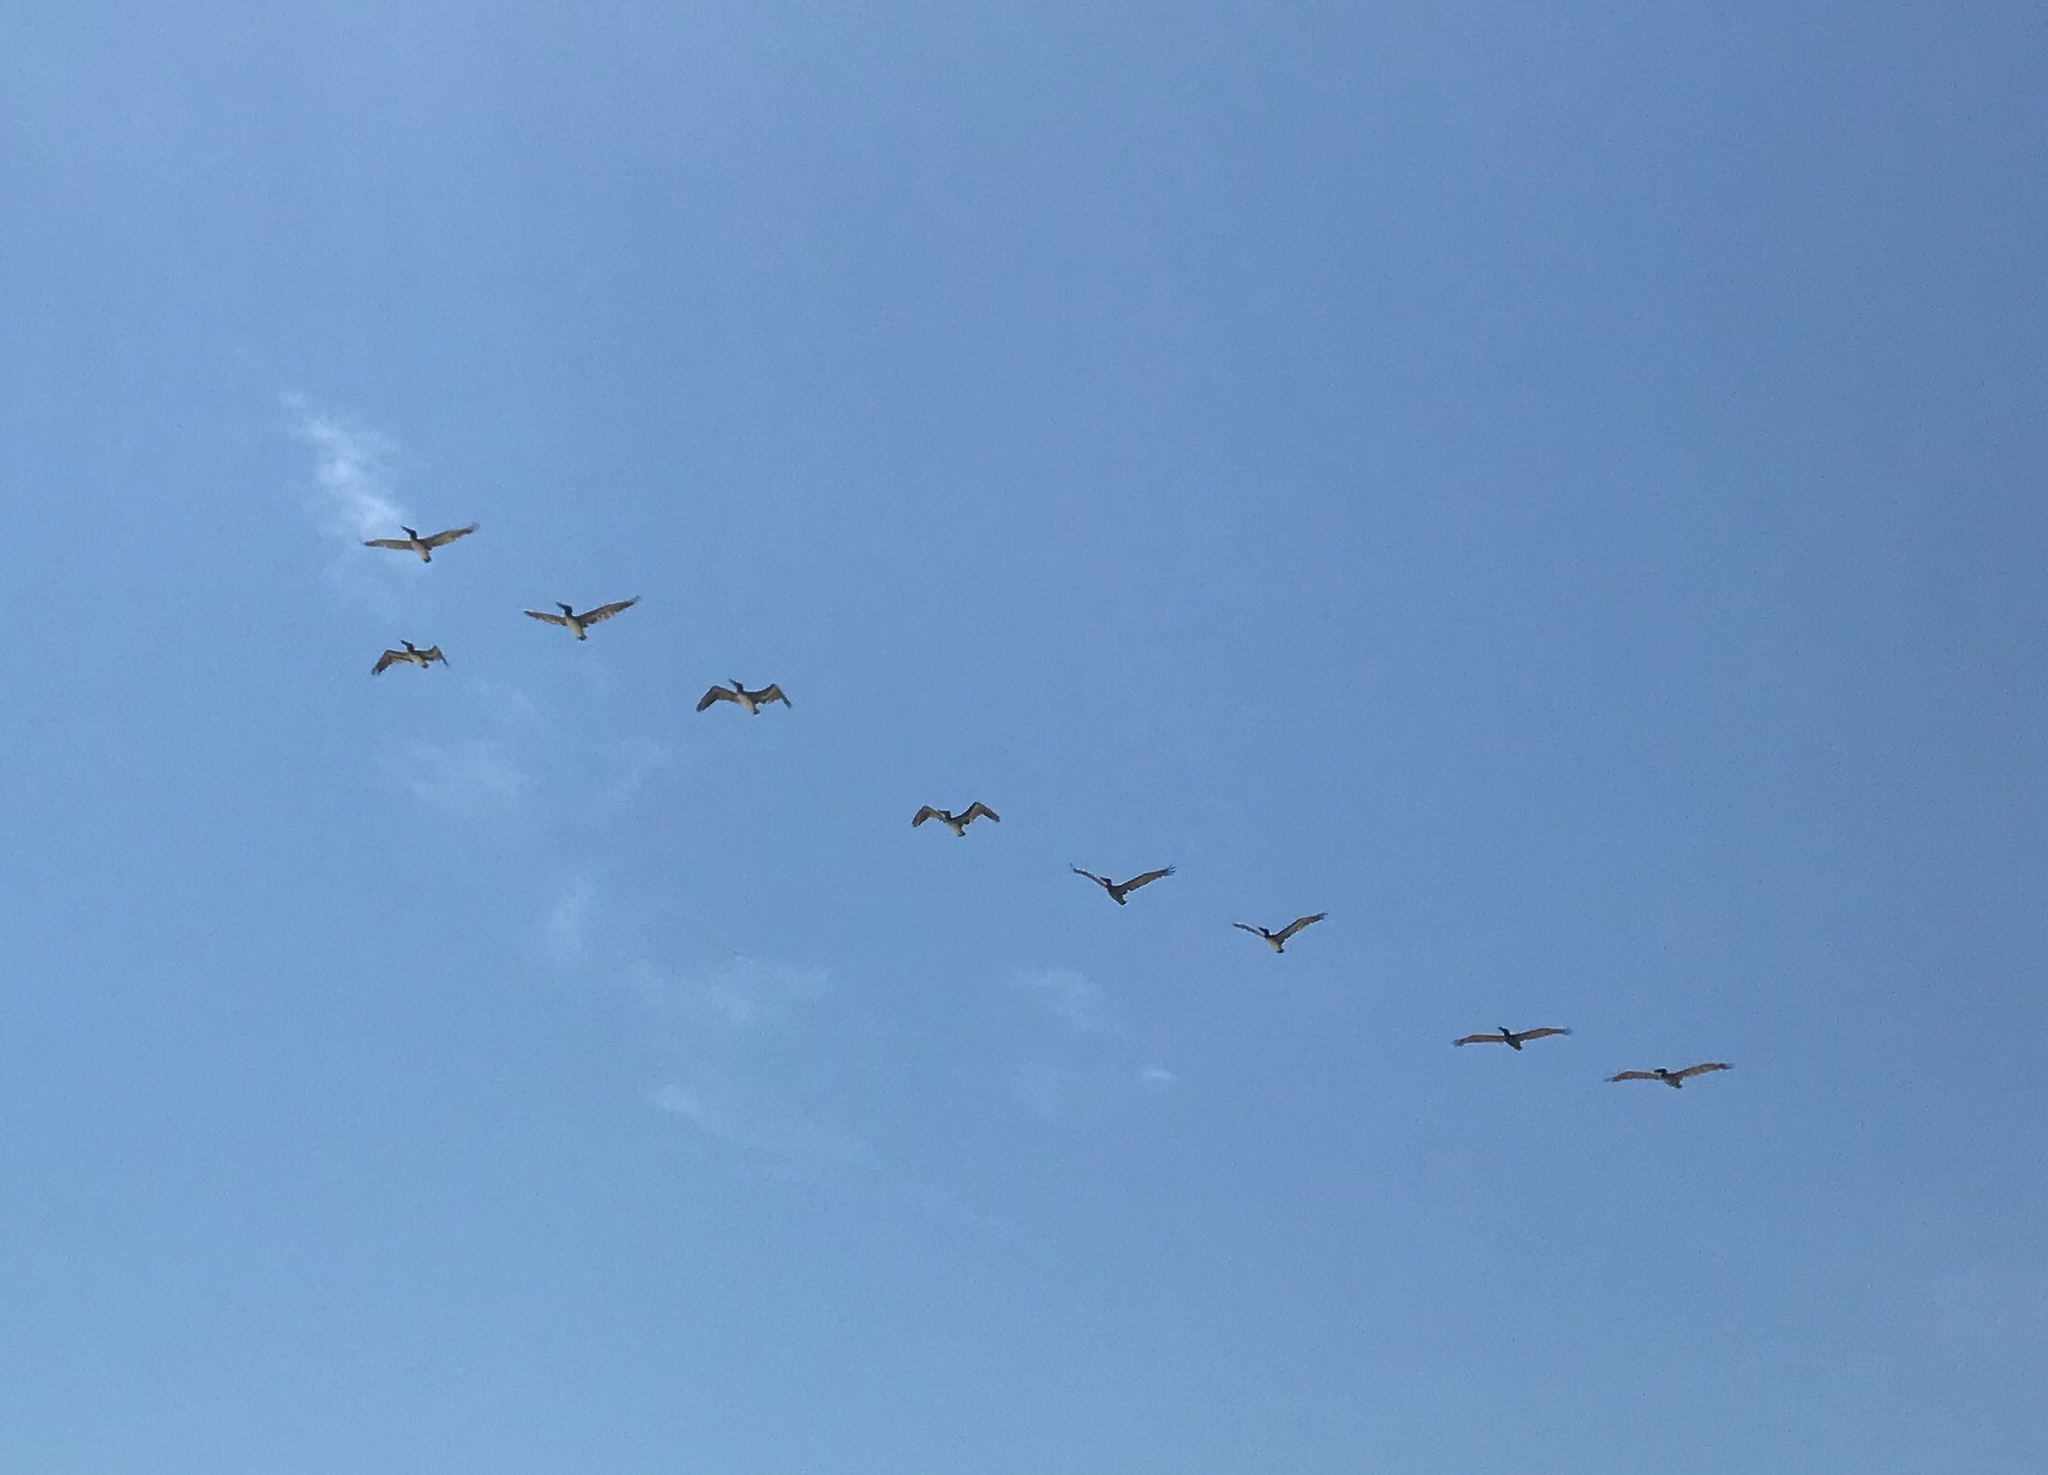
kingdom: Animalia
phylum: Chordata
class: Aves
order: Pelecaniformes
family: Pelecanidae
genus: Pelecanus
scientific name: Pelecanus occidentalis
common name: Brown pelican
